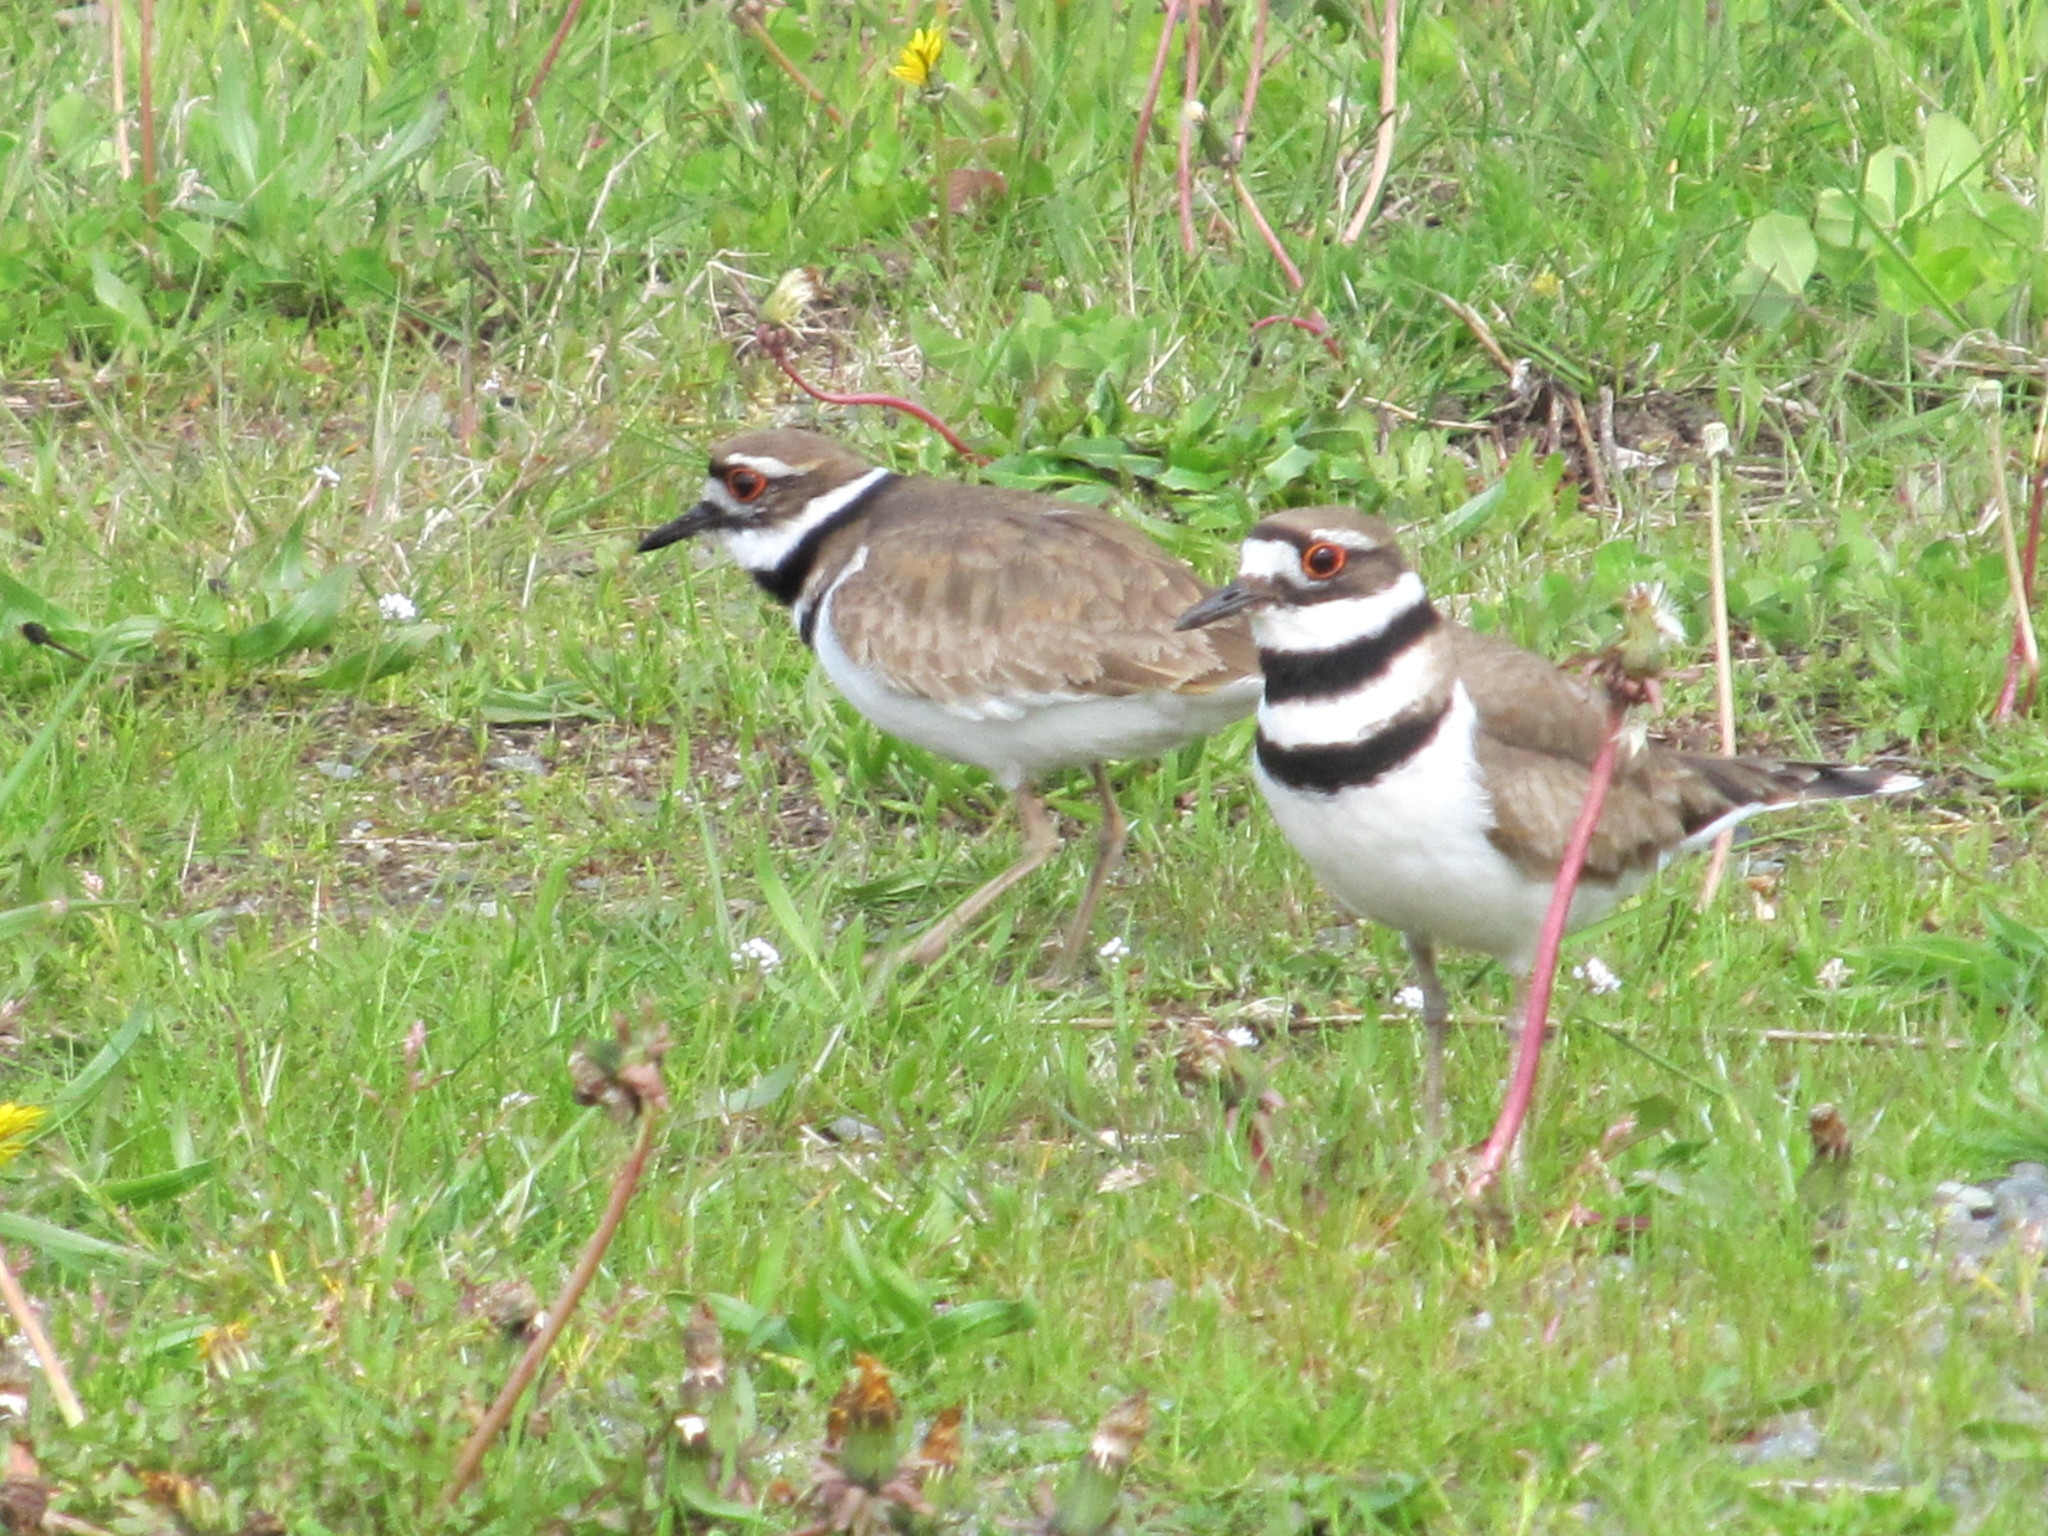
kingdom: Animalia
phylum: Chordata
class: Aves
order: Charadriiformes
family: Charadriidae
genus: Charadrius
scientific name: Charadrius vociferus
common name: Killdeer
